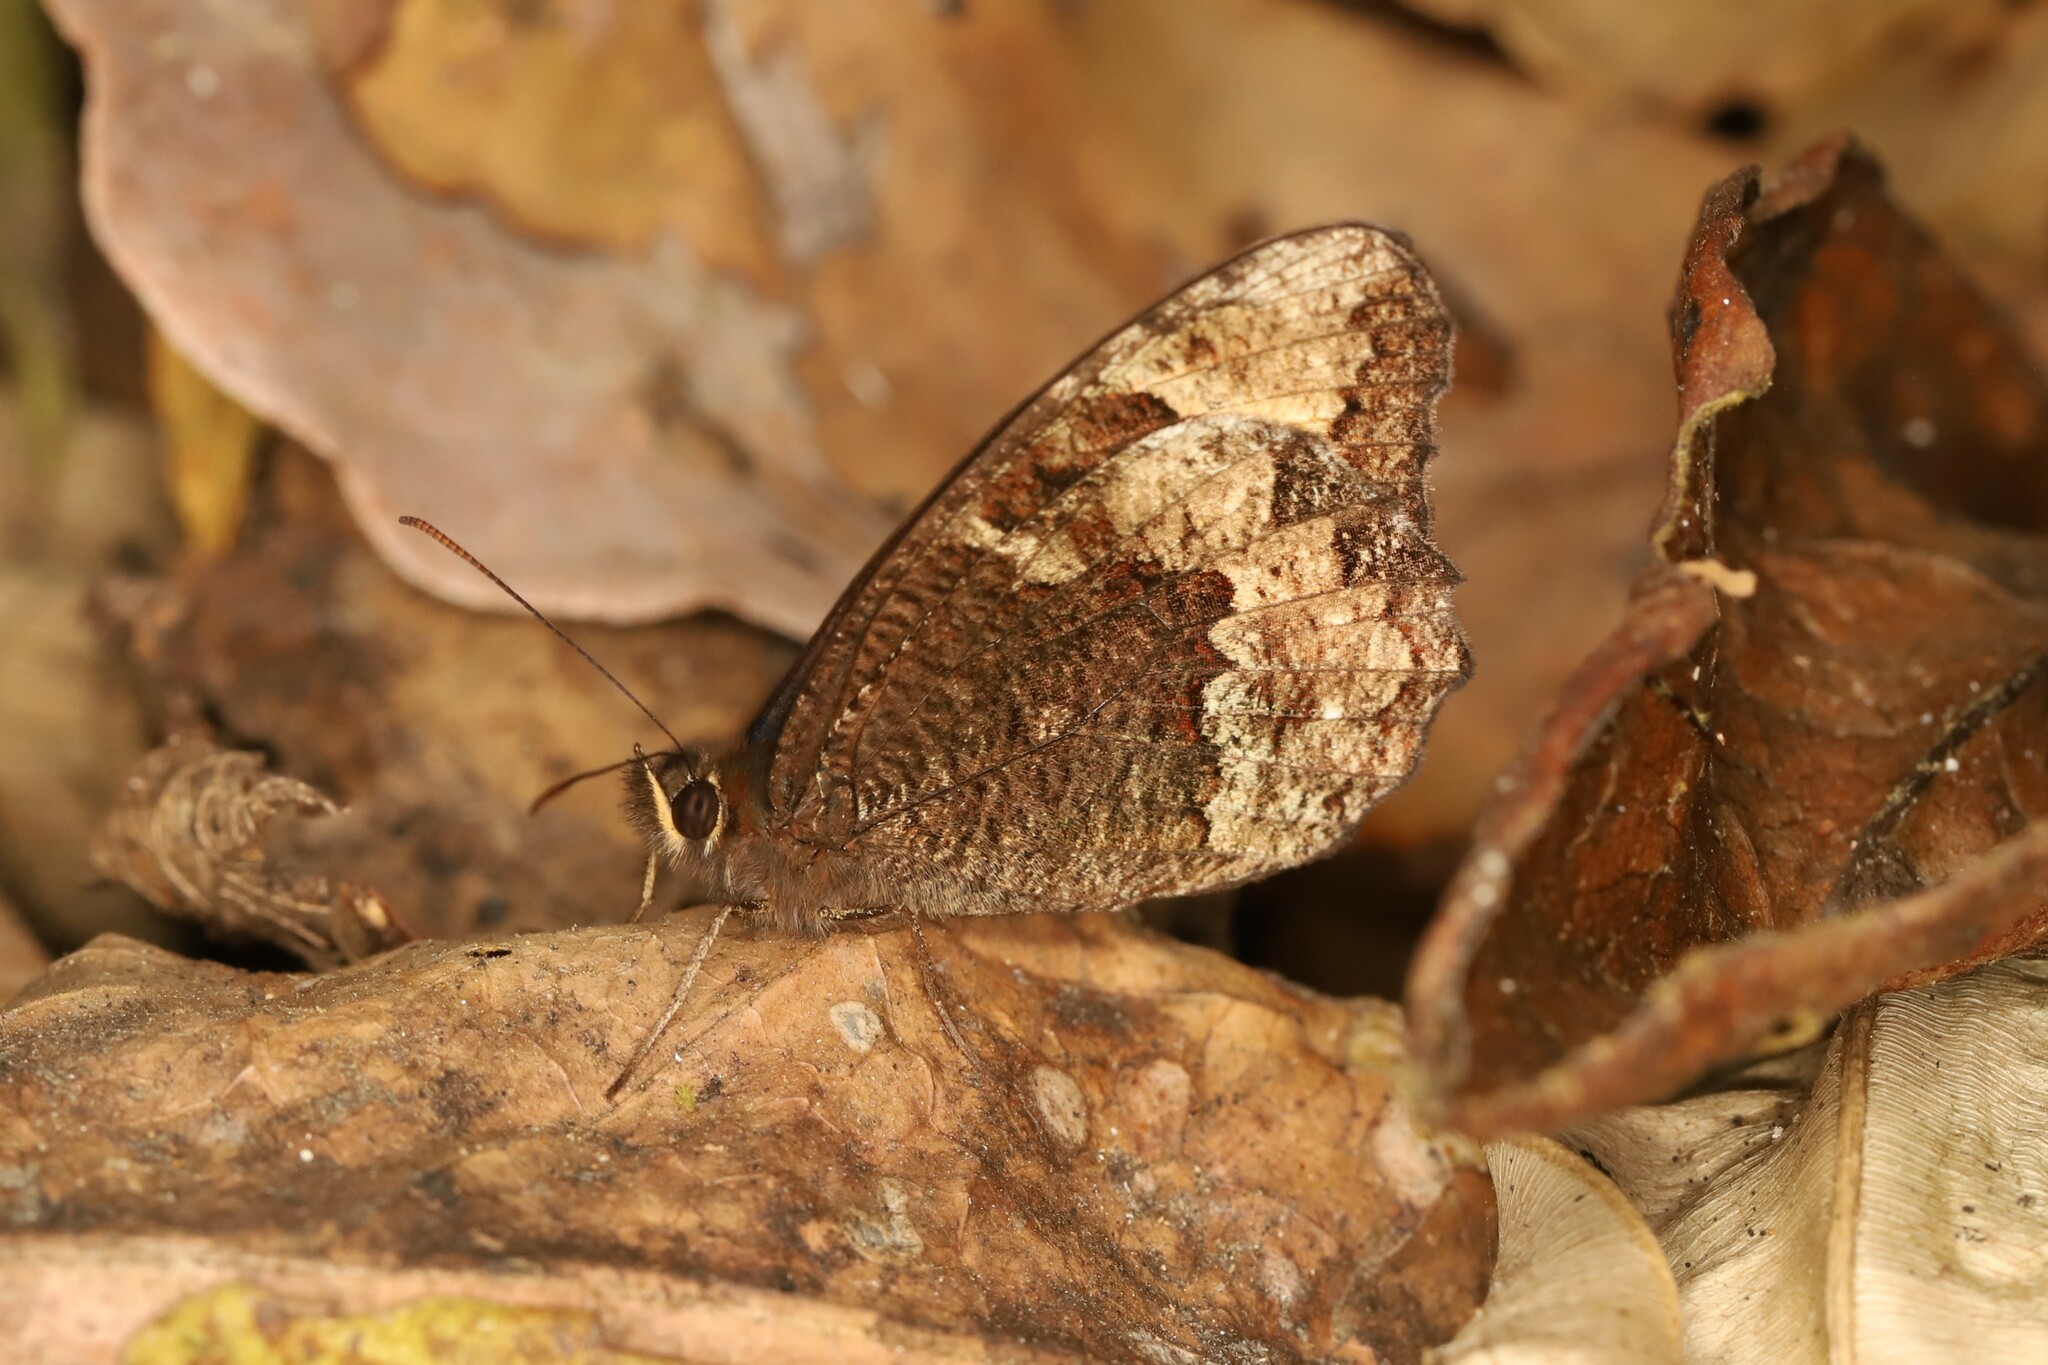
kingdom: Animalia
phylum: Arthropoda
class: Insecta
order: Lepidoptera
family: Nymphalidae
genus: Pedaliodes
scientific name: Pedaliodes
